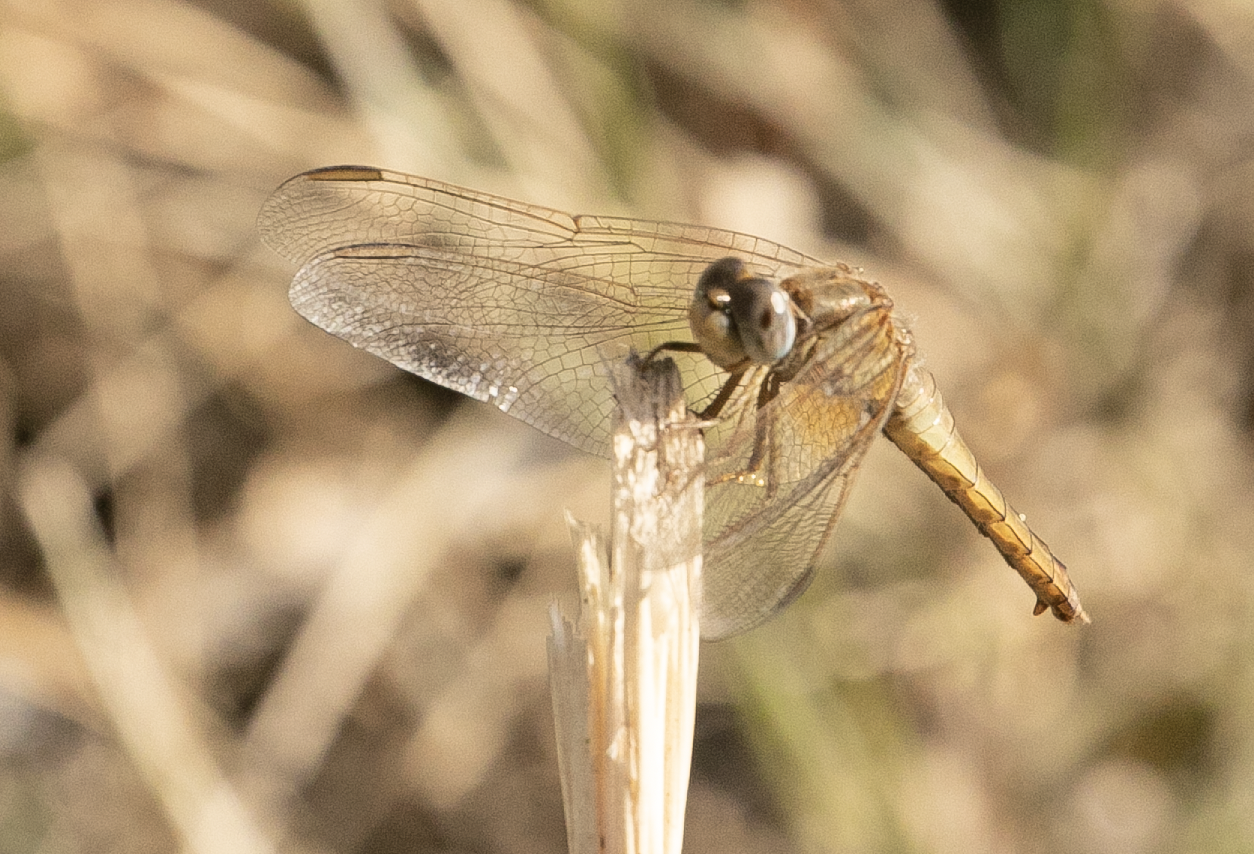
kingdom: Animalia
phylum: Arthropoda
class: Insecta
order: Odonata
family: Libellulidae
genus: Crocothemis
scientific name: Crocothemis erythraea
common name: Scarlet dragonfly
